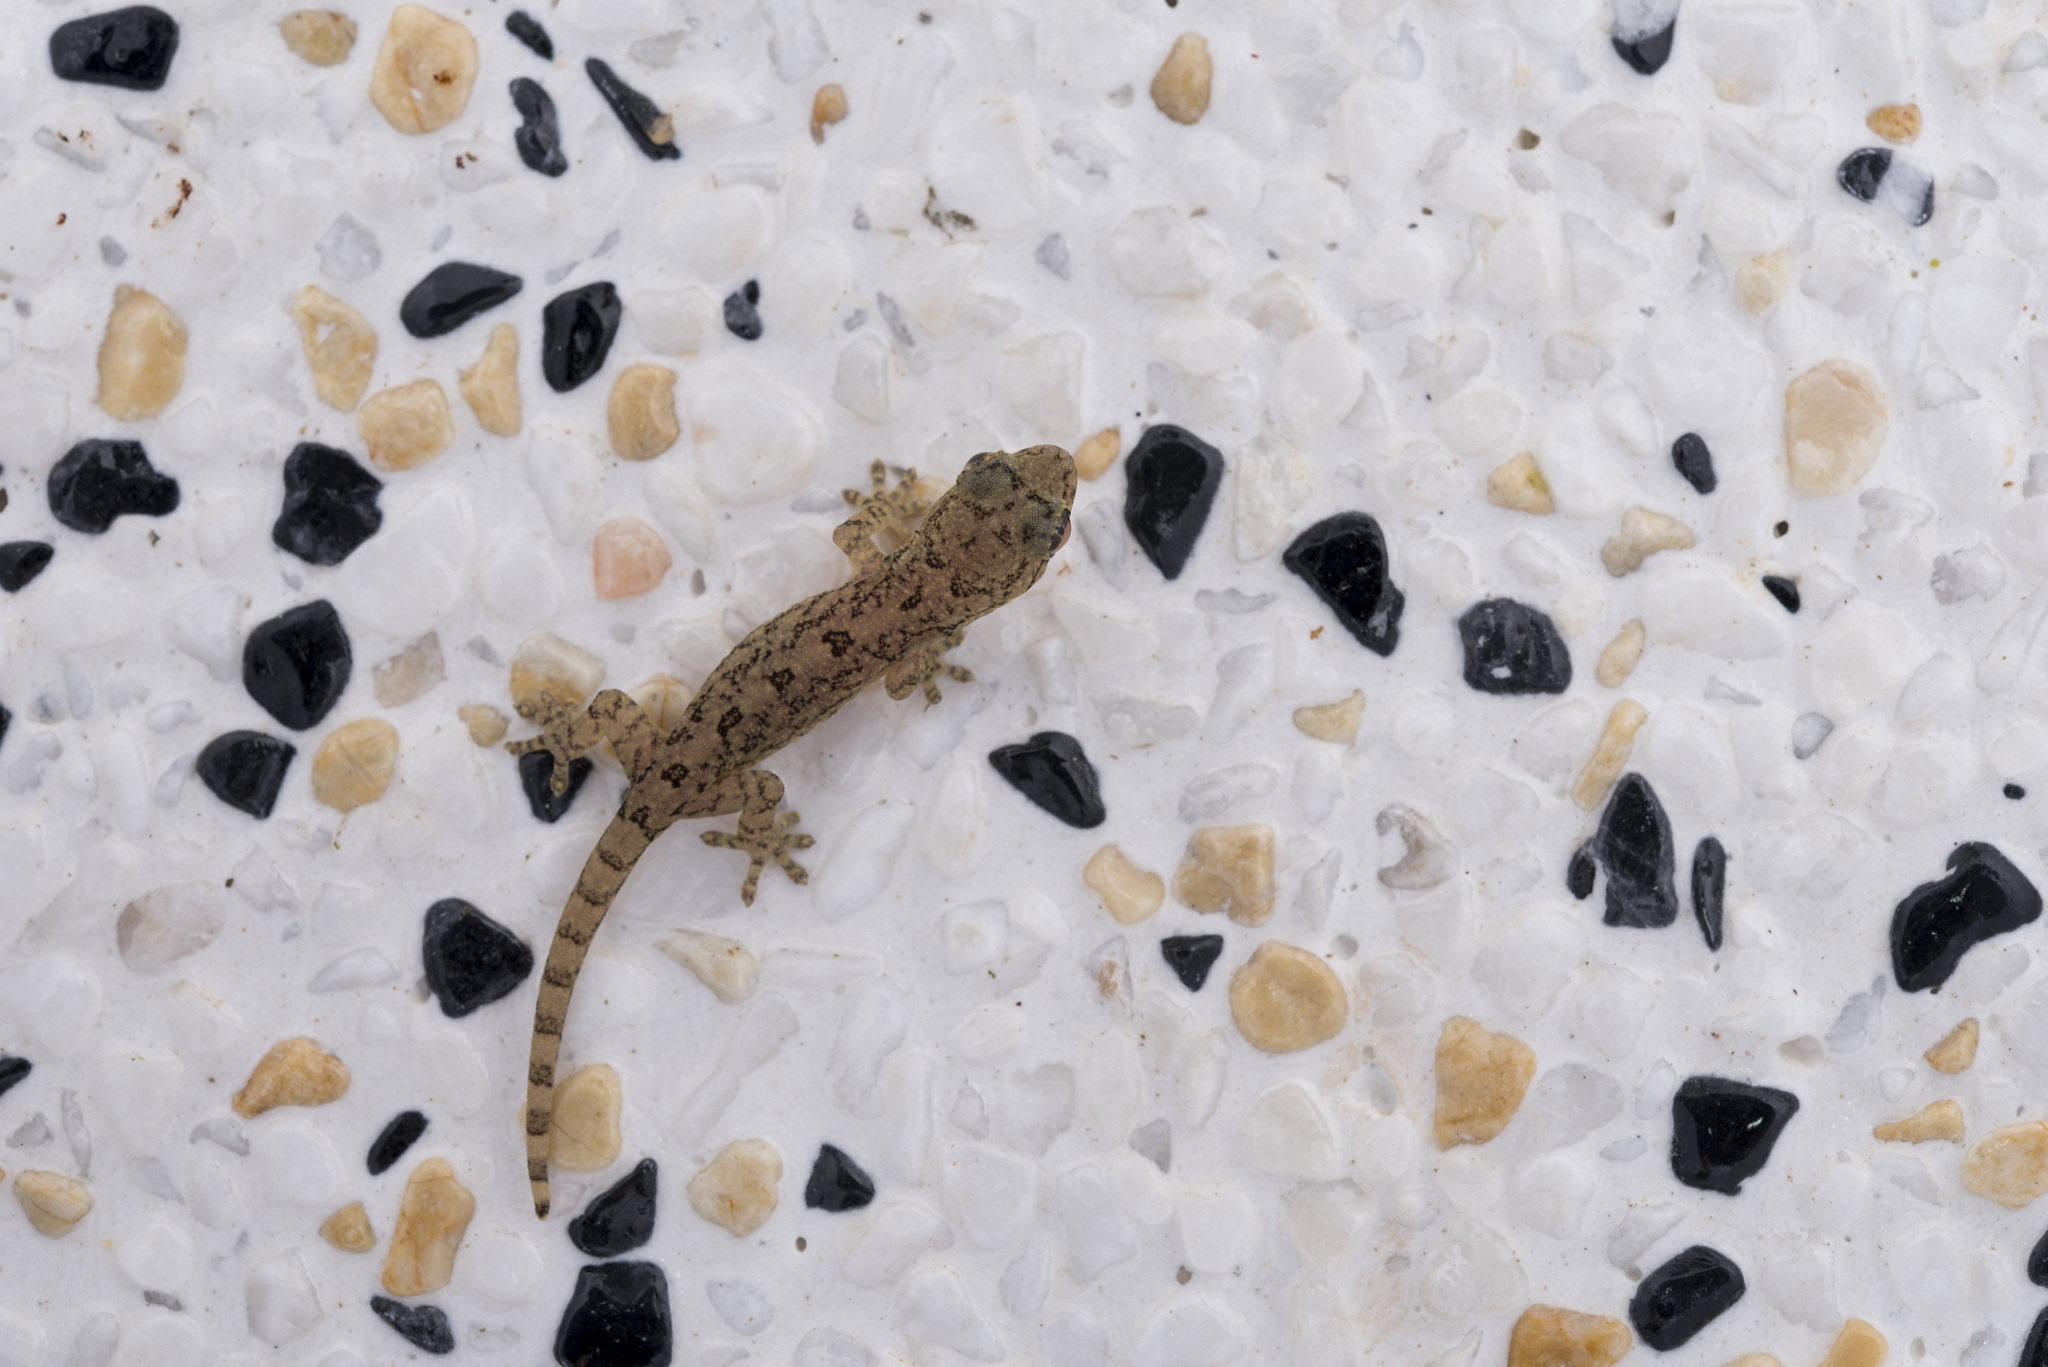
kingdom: Animalia
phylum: Chordata
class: Squamata
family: Gekkonidae
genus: Gekko
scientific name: Gekko hokouensis
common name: Kwangsi gecko
